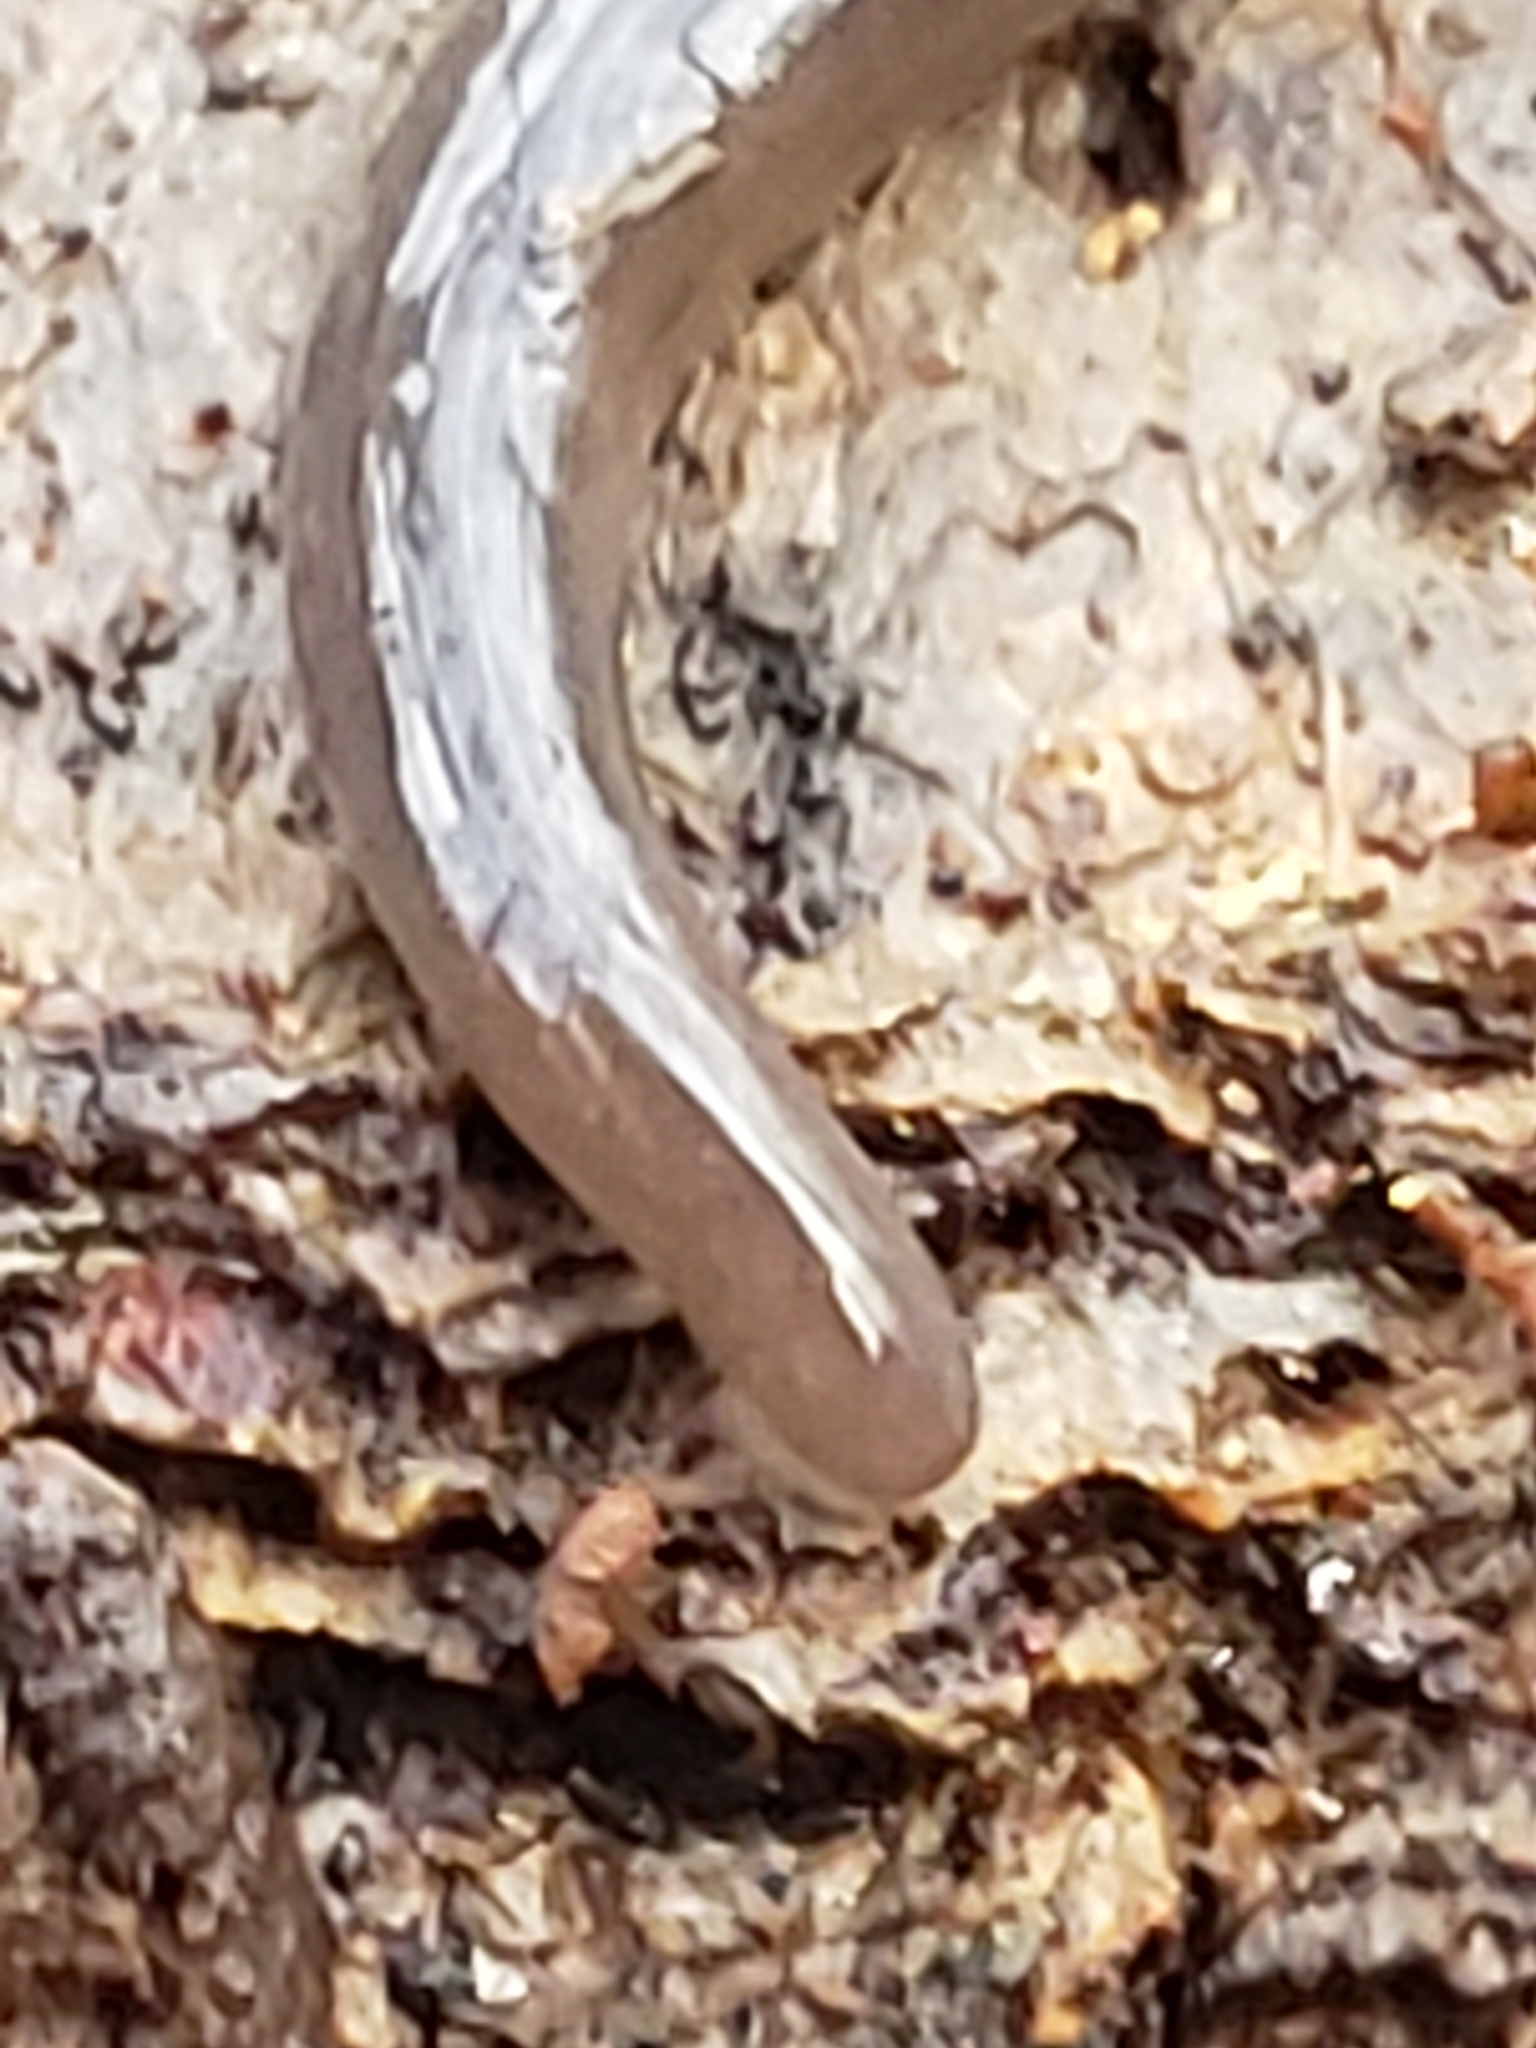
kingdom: Animalia
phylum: Platyhelminthes
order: Tricladida
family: Geoplanidae
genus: Microplana
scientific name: Microplana terrestris
